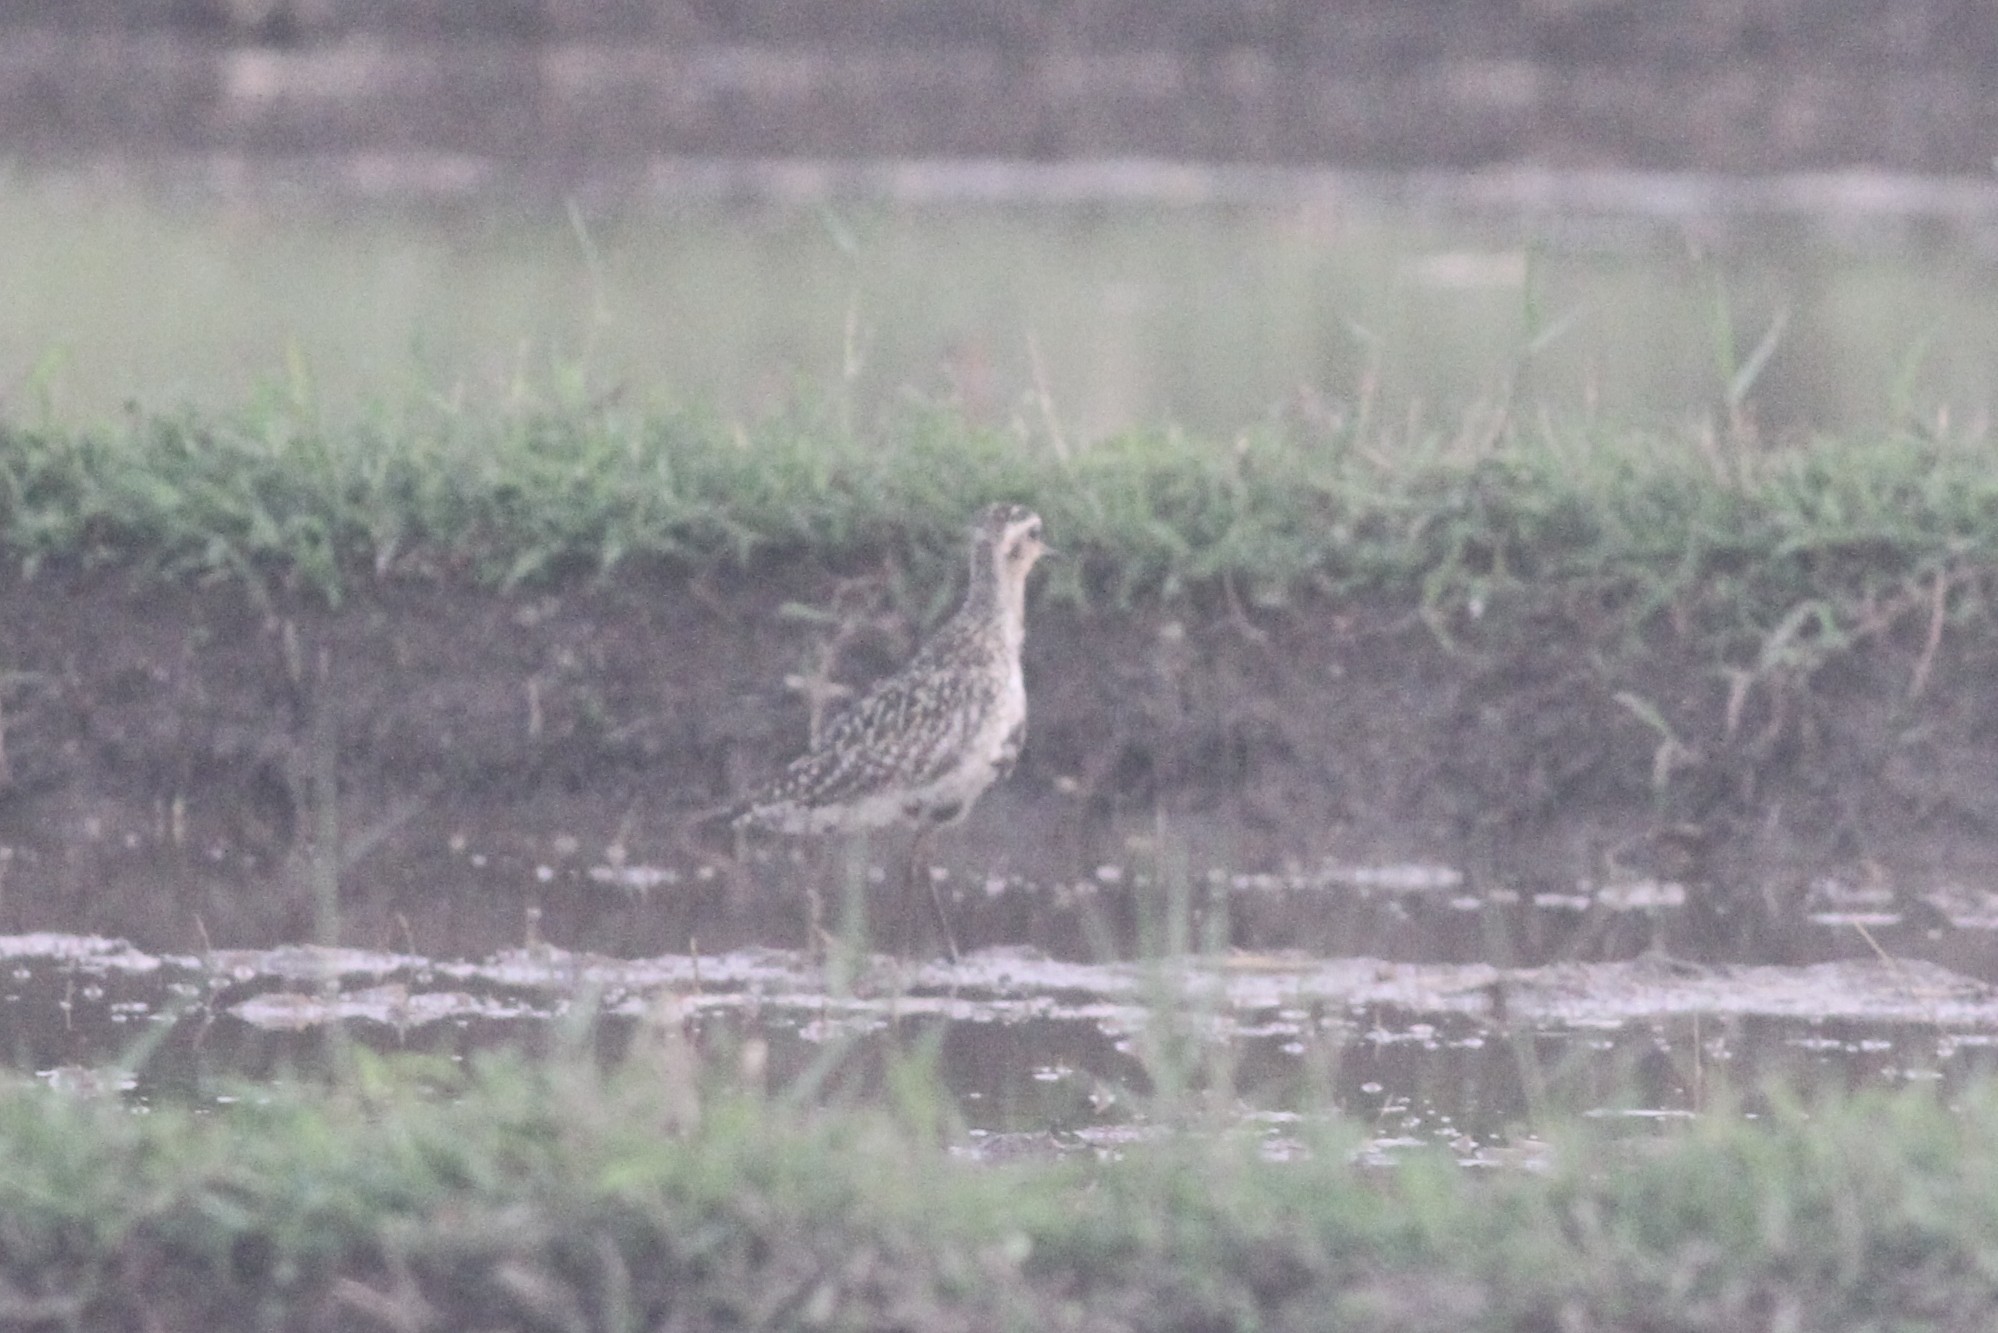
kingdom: Animalia
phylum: Chordata
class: Aves
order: Charadriiformes
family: Charadriidae
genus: Pluvialis
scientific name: Pluvialis fulva
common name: Pacific golden plover
